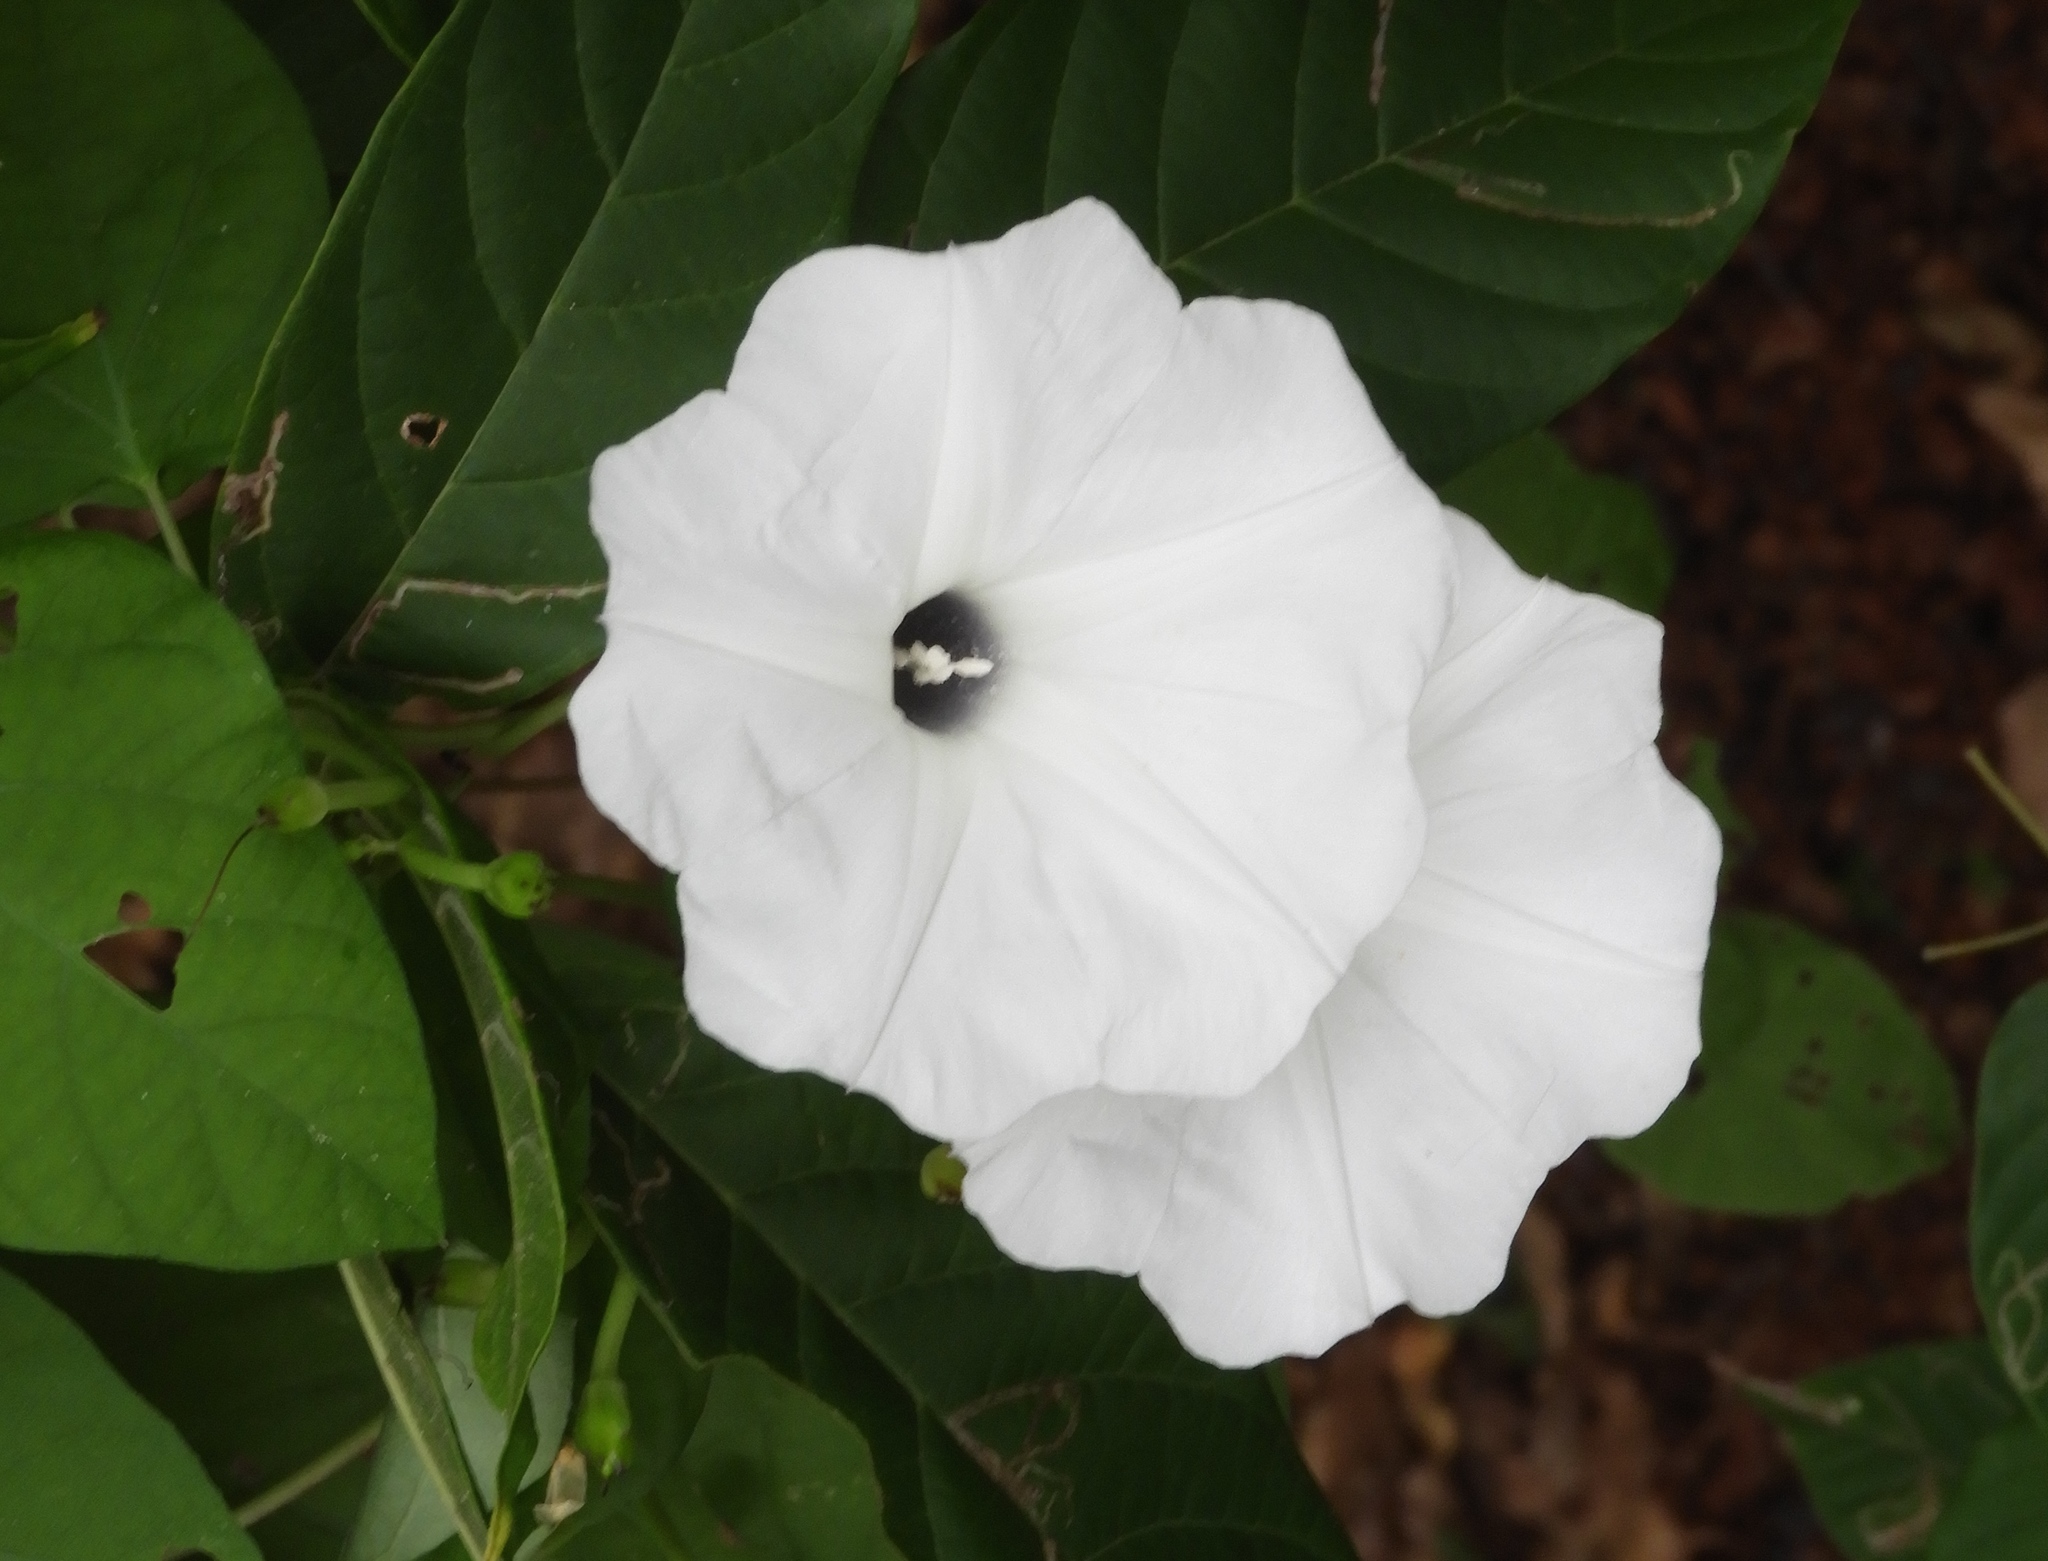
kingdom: Plantae
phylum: Tracheophyta
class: Magnoliopsida
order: Solanales
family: Convolvulaceae
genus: Ipomoea
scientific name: Ipomoea scopulorum
